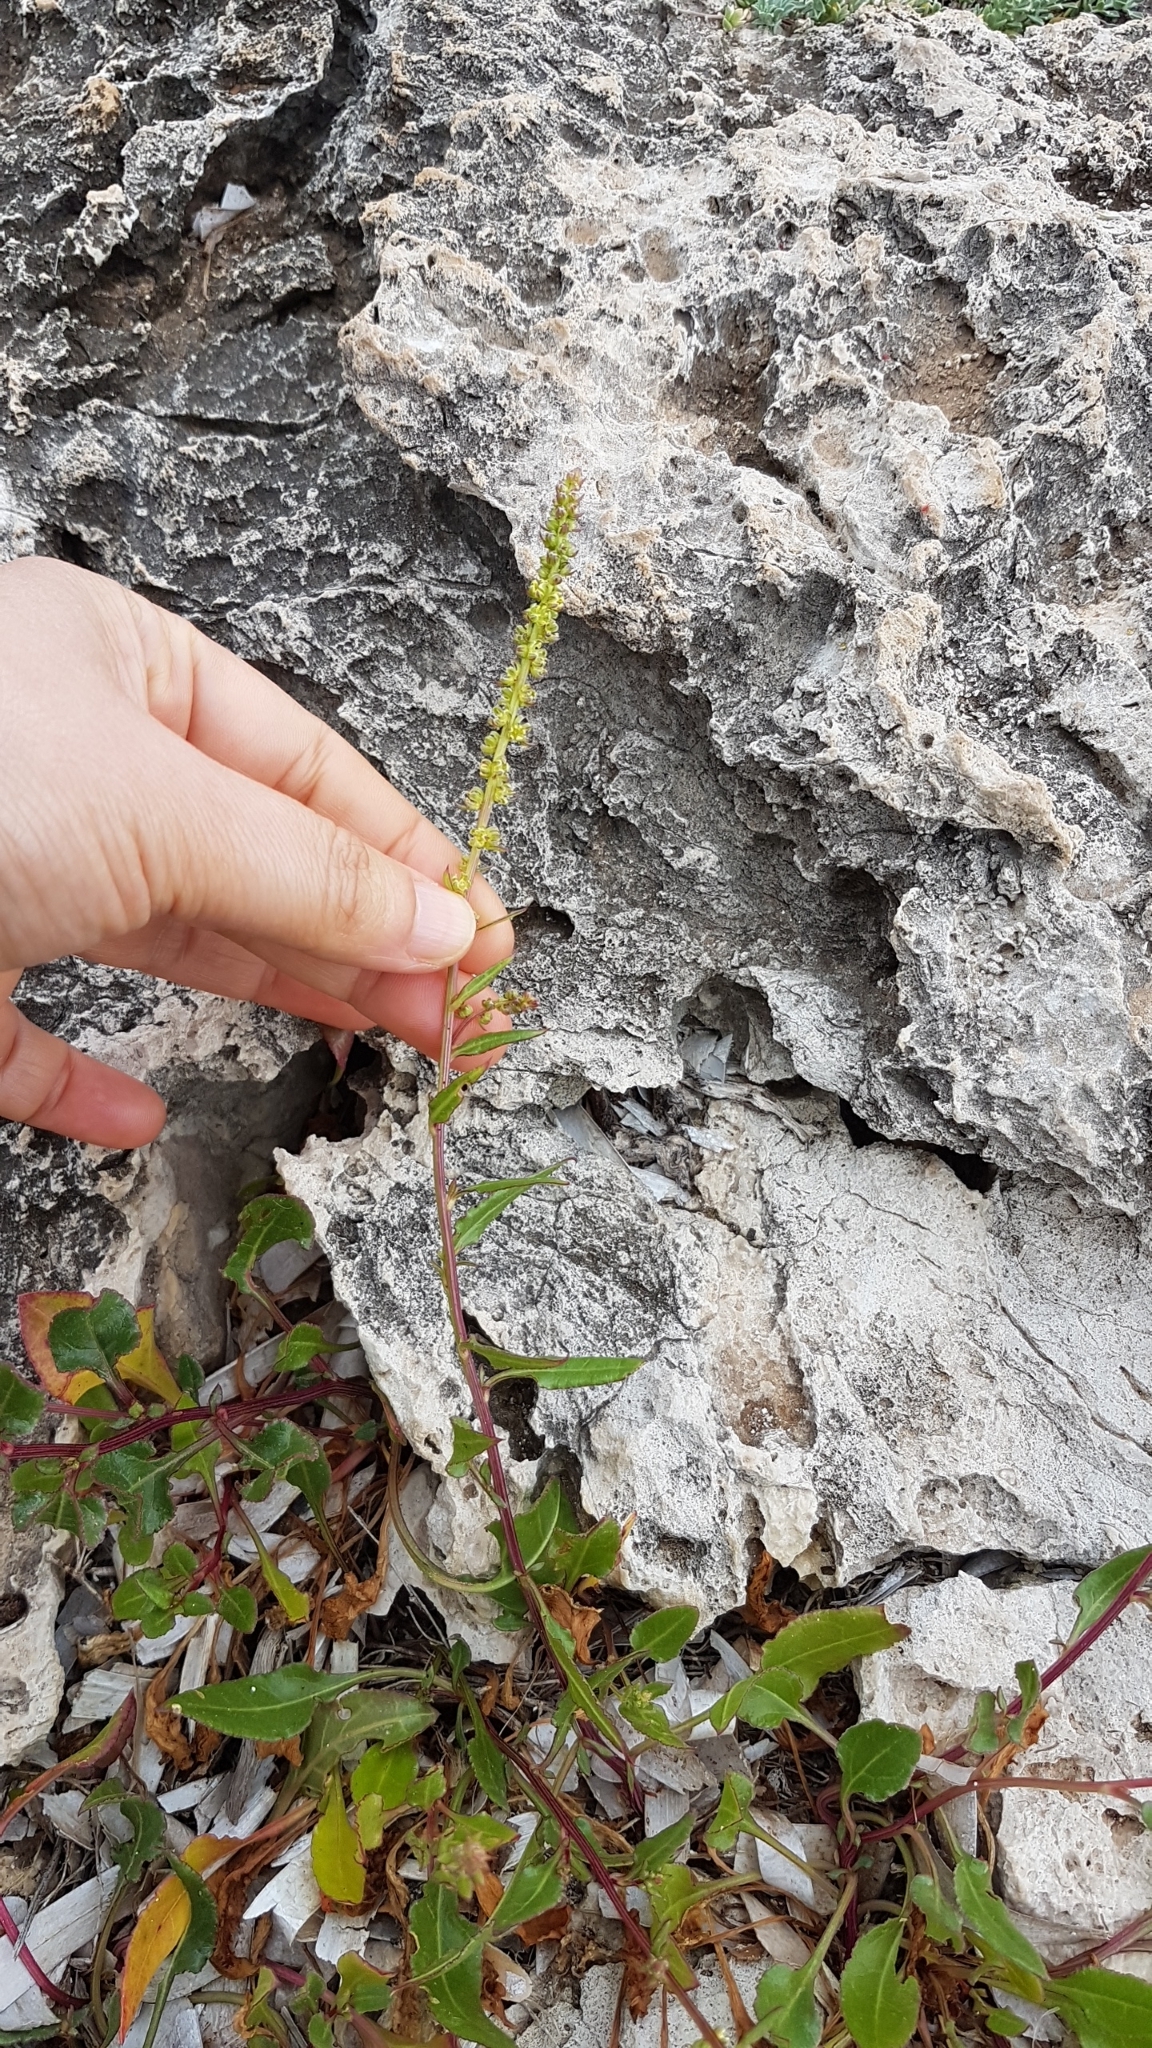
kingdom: Plantae
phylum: Tracheophyta
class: Magnoliopsida
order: Caryophyllales
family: Amaranthaceae
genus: Beta
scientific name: Beta vulgaris
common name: Beet
